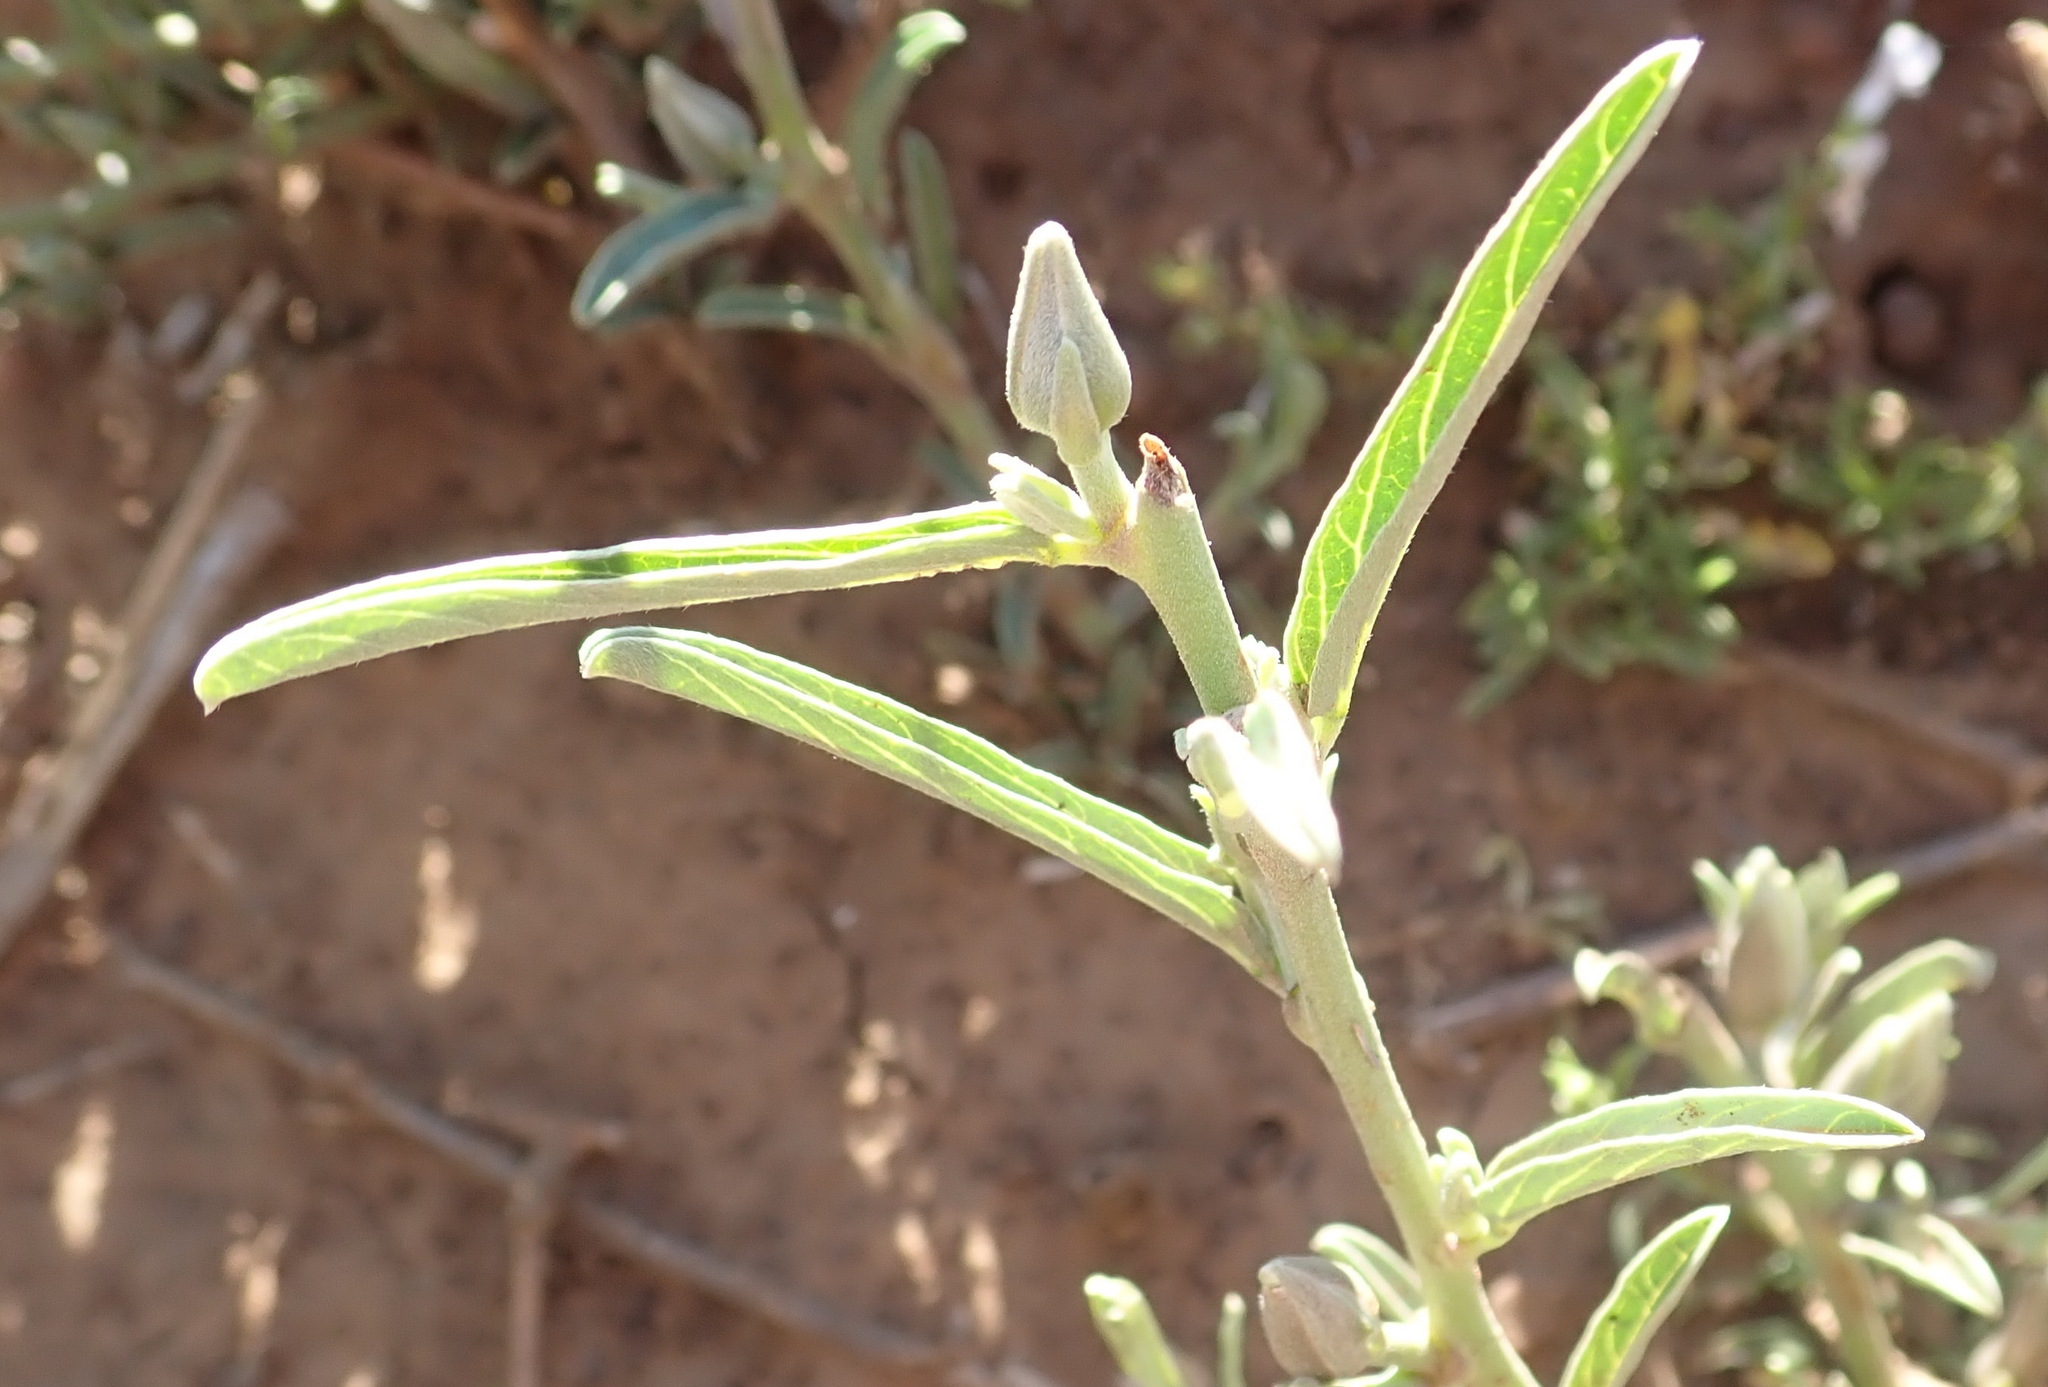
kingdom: Plantae
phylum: Tracheophyta
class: Magnoliopsida
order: Solanales
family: Convolvulaceae
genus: Ipomoea
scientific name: Ipomoea oenotheroides
